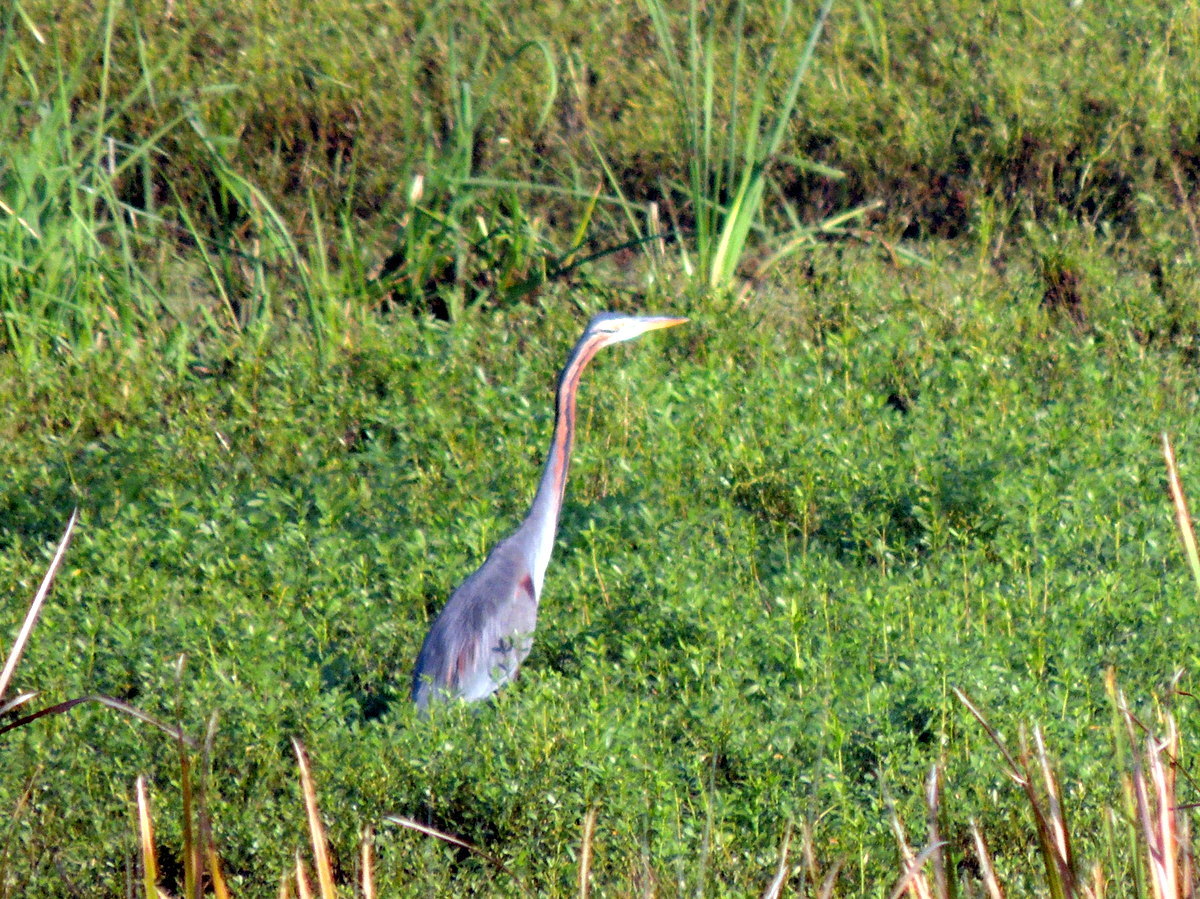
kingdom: Animalia
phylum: Chordata
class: Aves
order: Pelecaniformes
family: Ardeidae
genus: Ardea
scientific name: Ardea purpurea
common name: Purple heron
